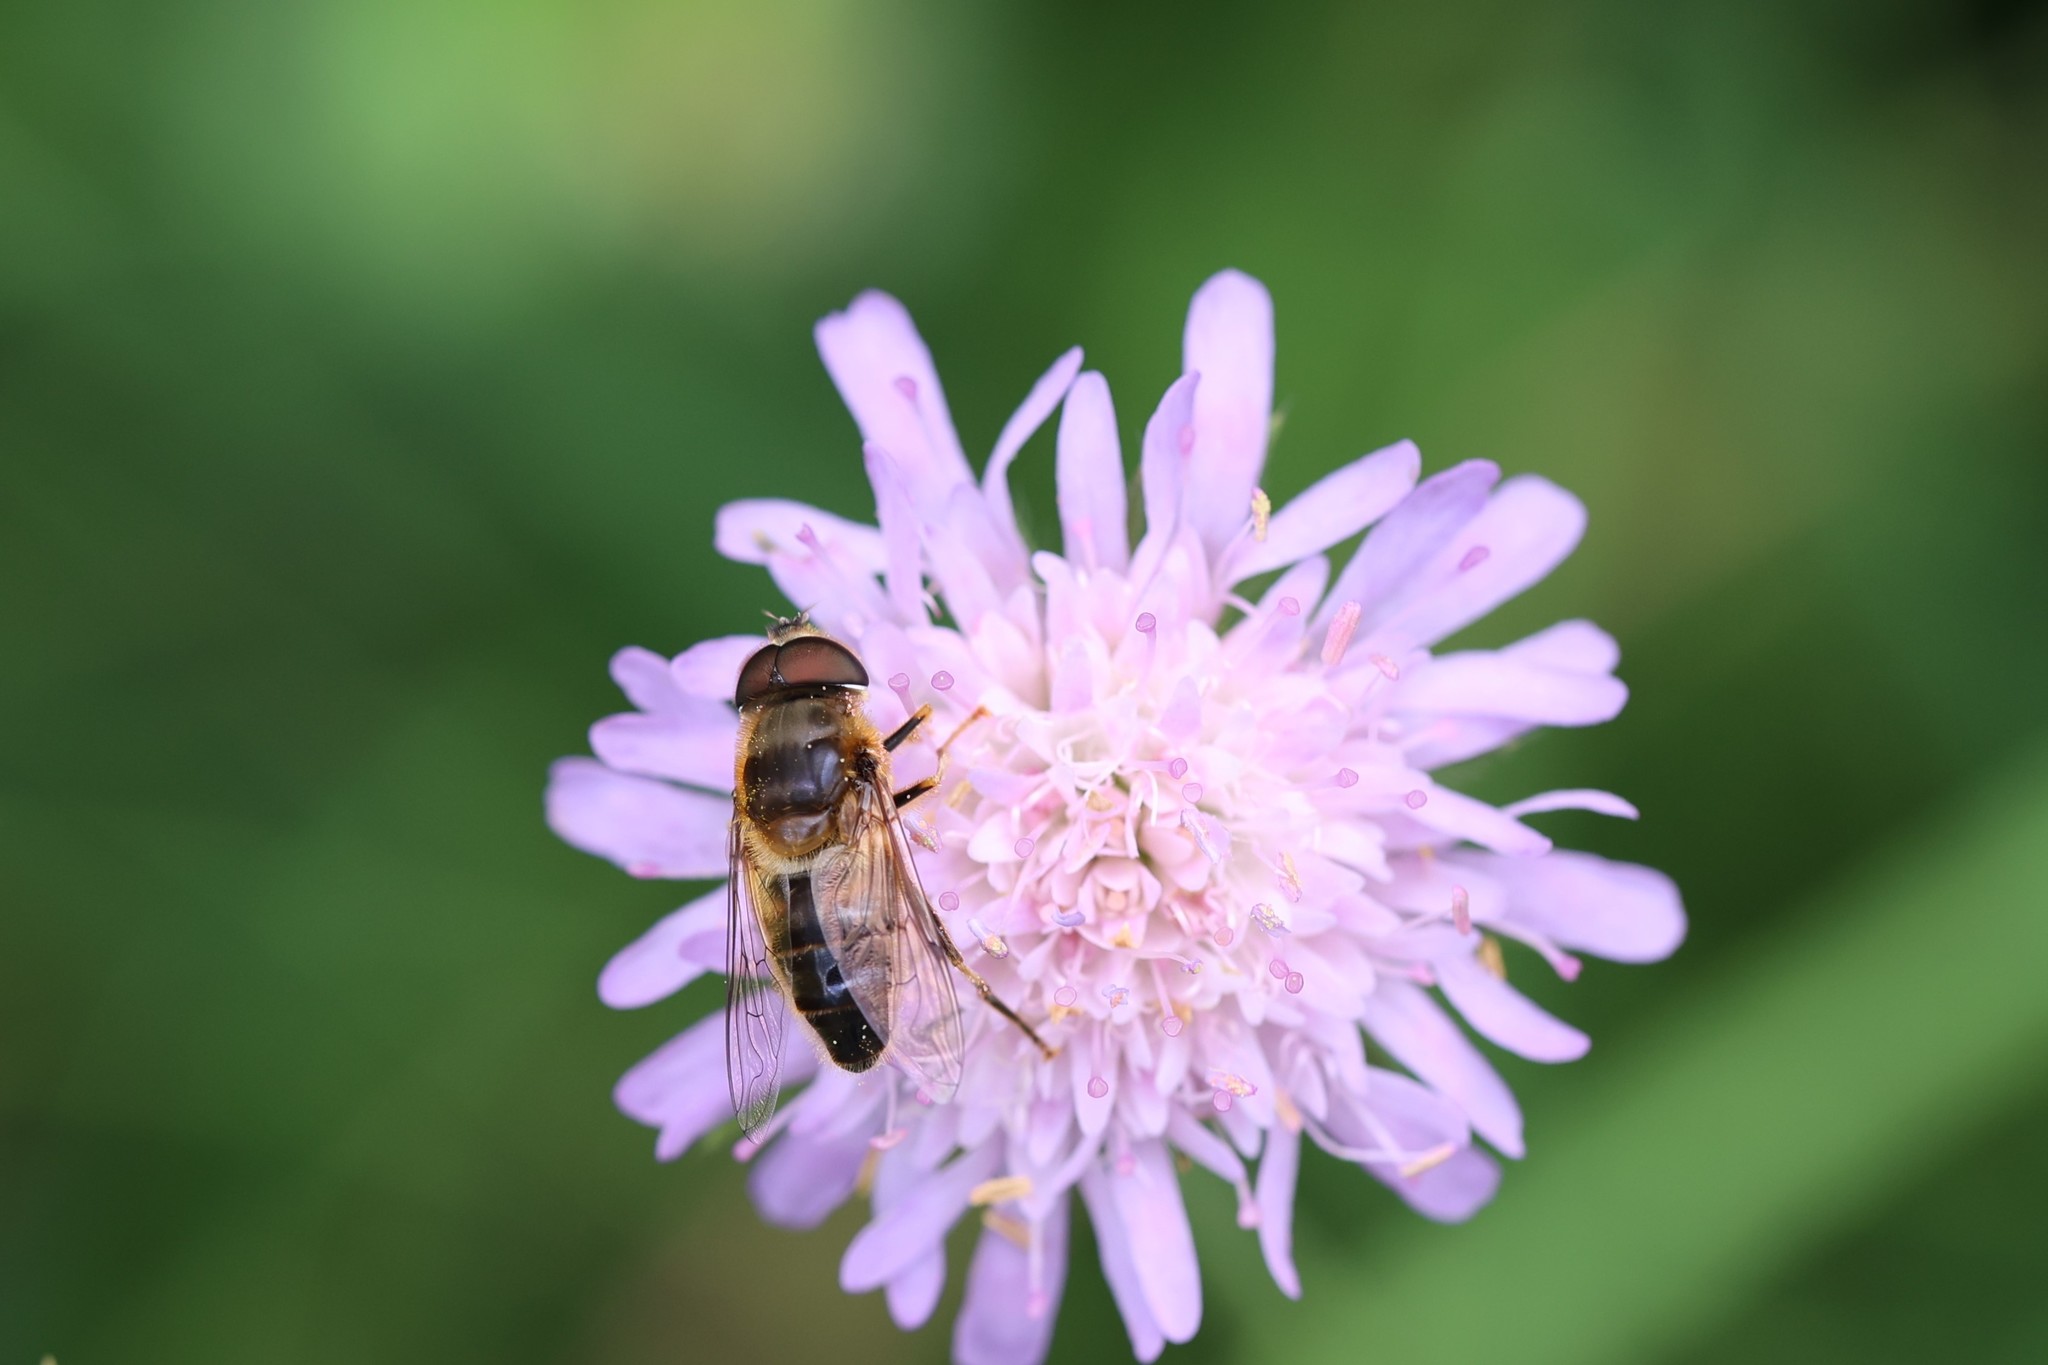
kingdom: Animalia
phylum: Arthropoda
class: Insecta
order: Diptera
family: Syrphidae
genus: Eristalis
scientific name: Eristalis pertinax
